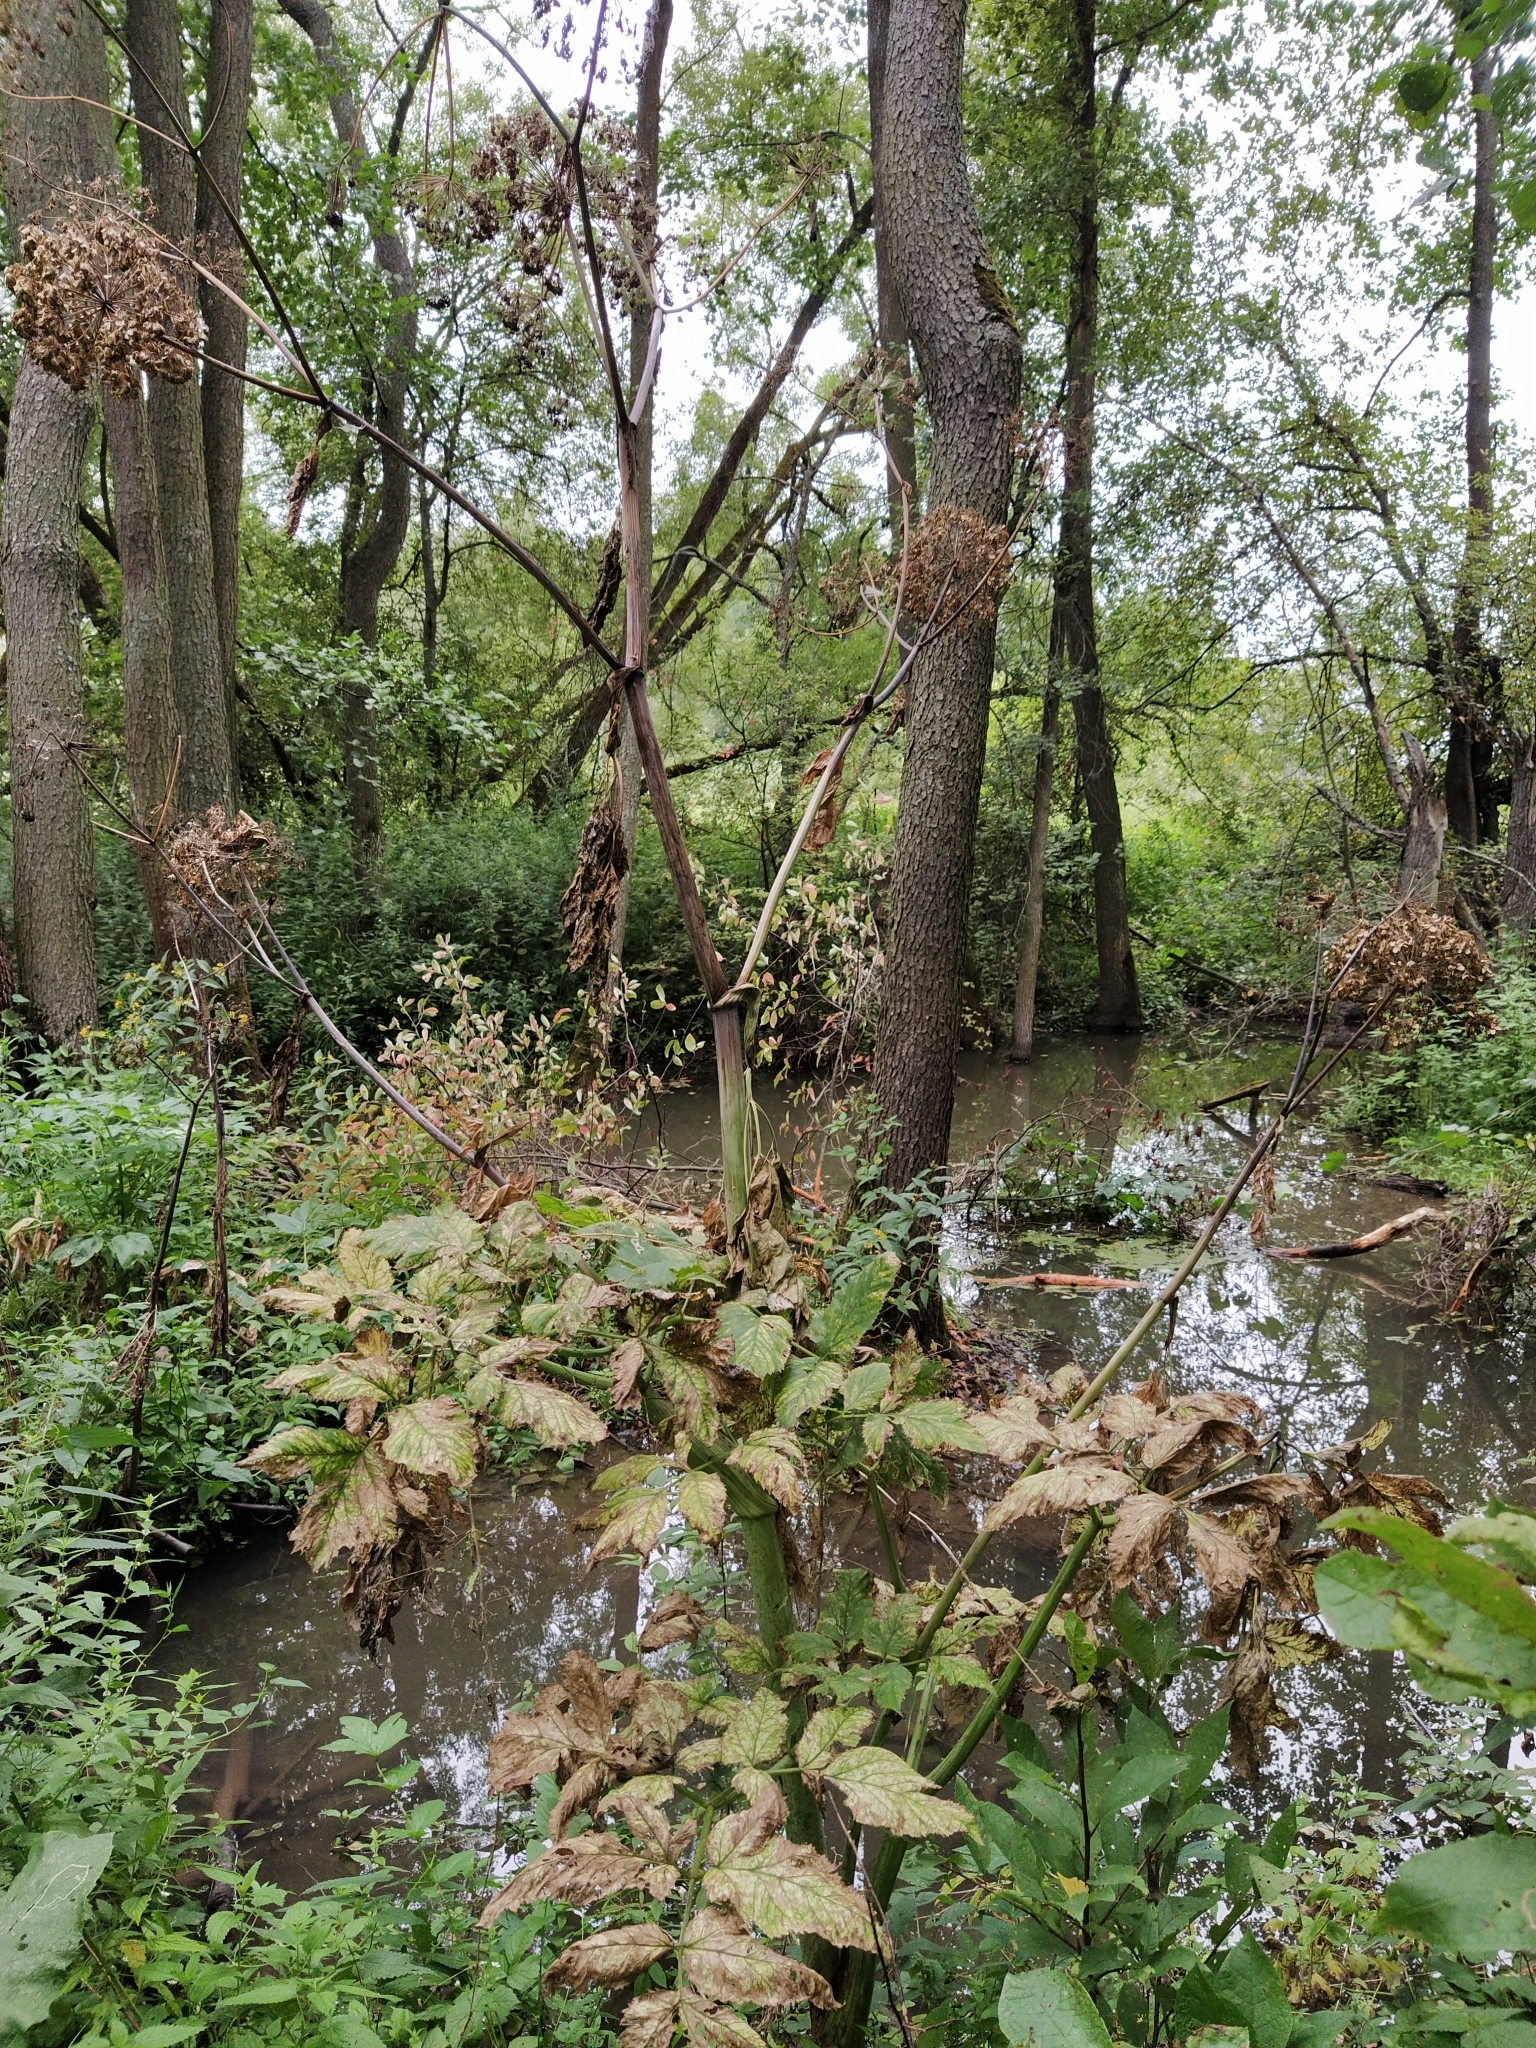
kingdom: Plantae
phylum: Tracheophyta
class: Magnoliopsida
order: Apiales
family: Apiaceae
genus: Angelica
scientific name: Angelica archangelica
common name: Garden angelica
